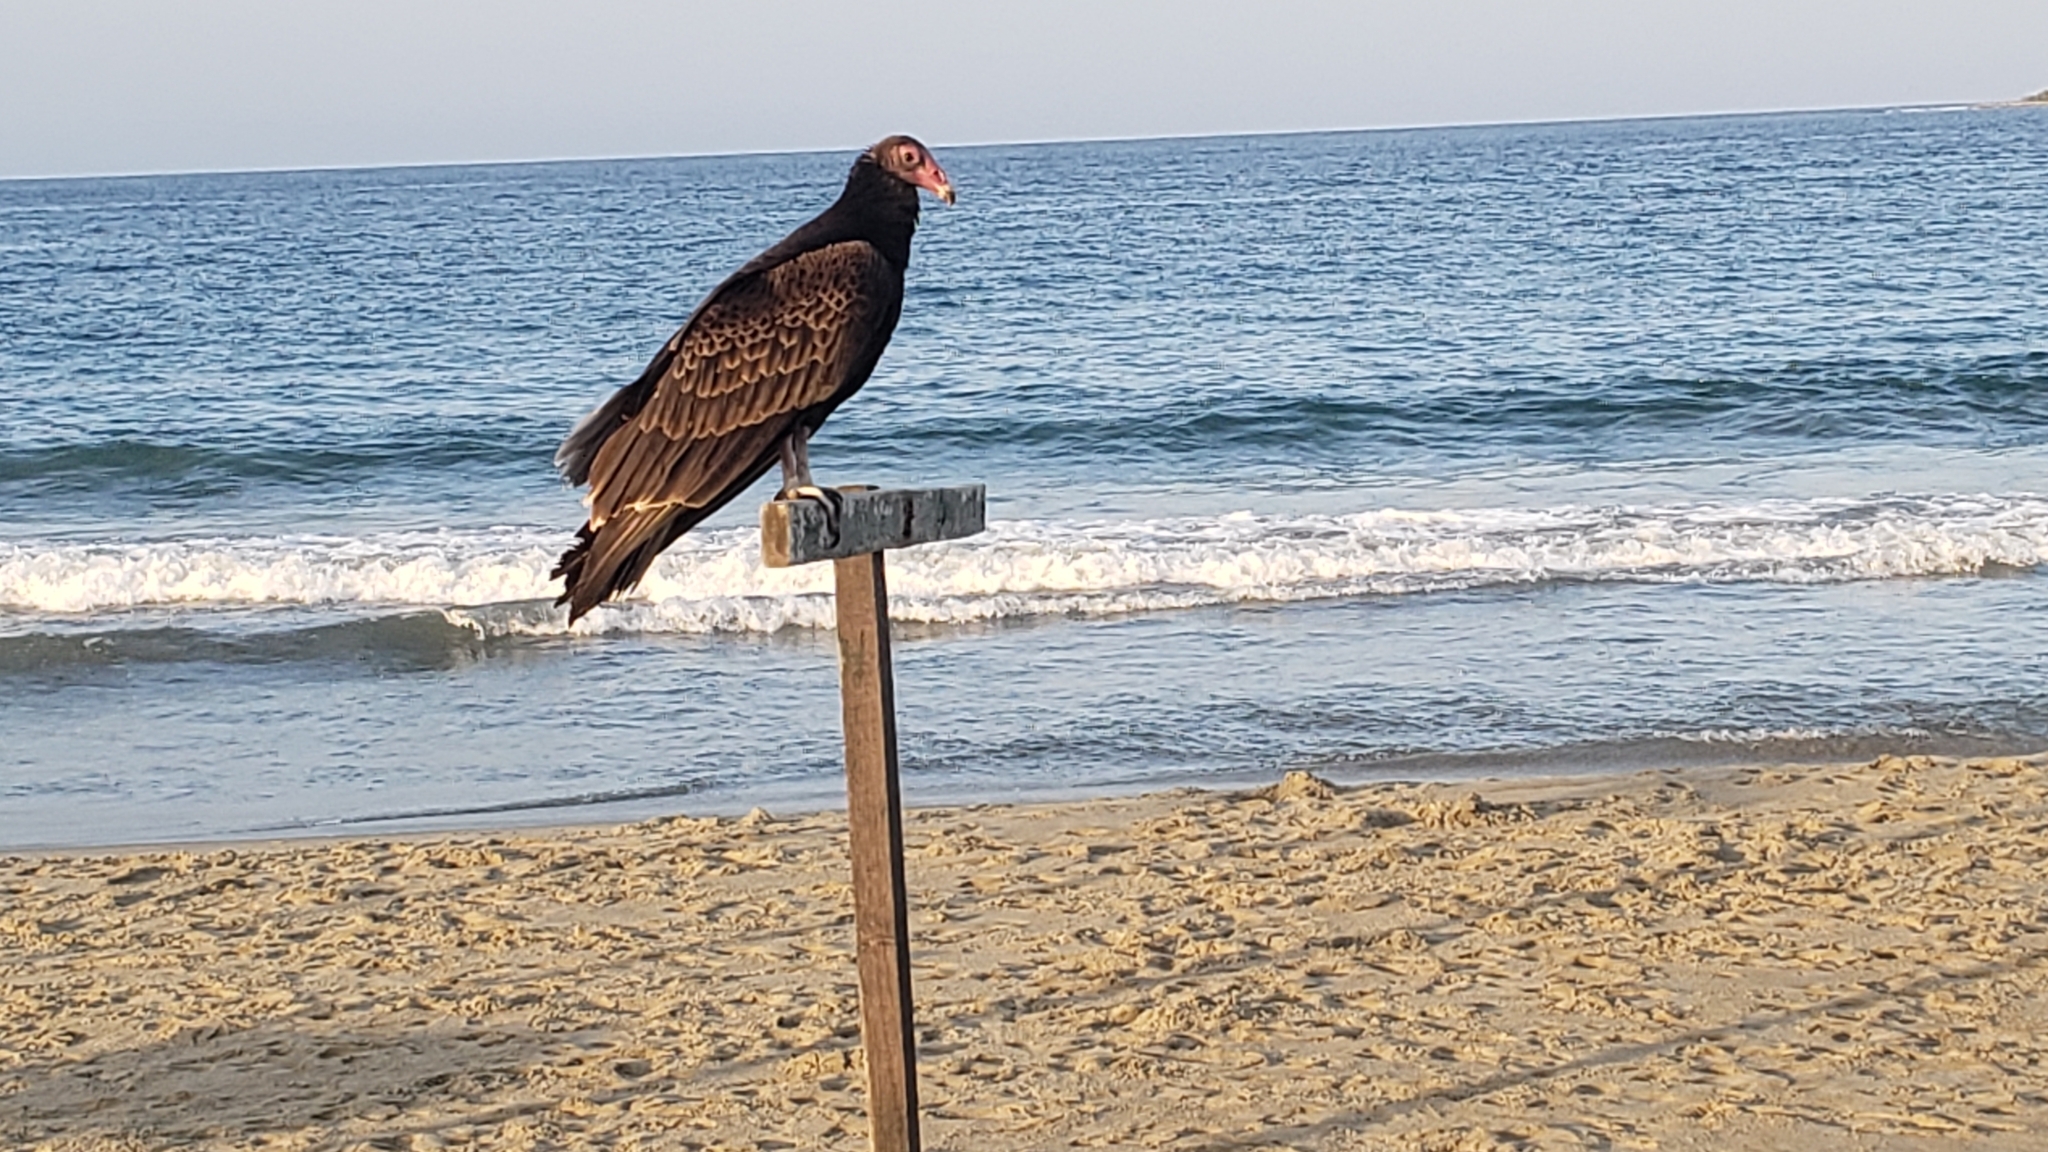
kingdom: Animalia
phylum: Chordata
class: Aves
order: Accipitriformes
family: Cathartidae
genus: Cathartes
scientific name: Cathartes aura
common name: Turkey vulture
